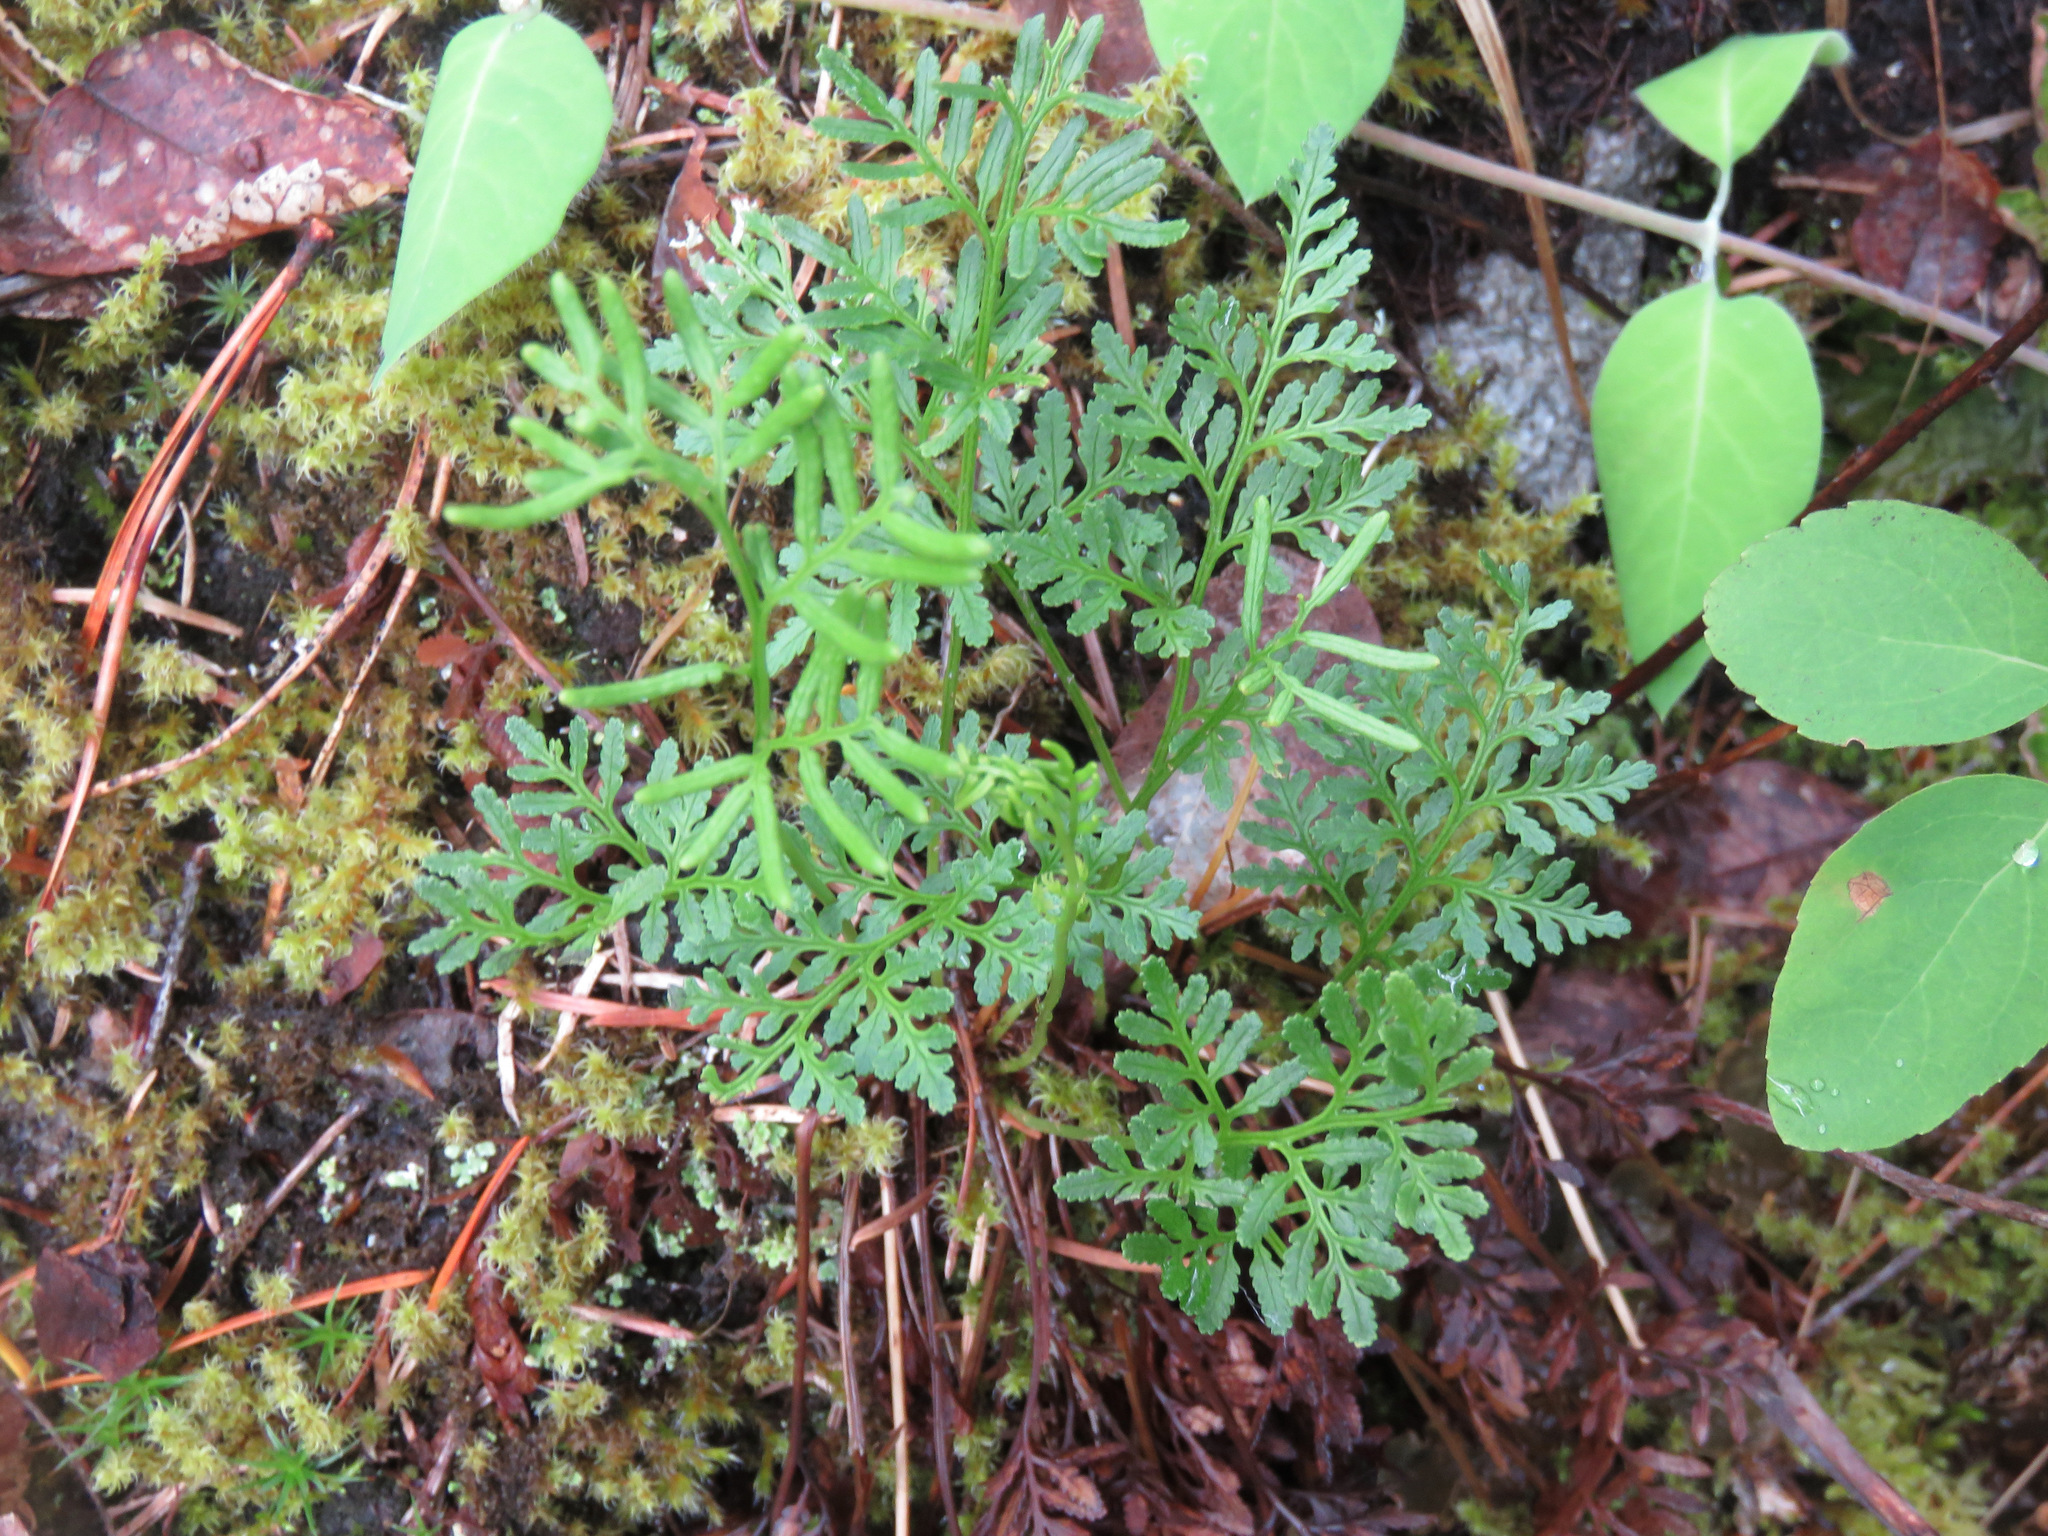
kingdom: Plantae
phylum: Tracheophyta
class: Polypodiopsida
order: Polypodiales
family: Pteridaceae
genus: Cryptogramma
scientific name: Cryptogramma acrostichoides
